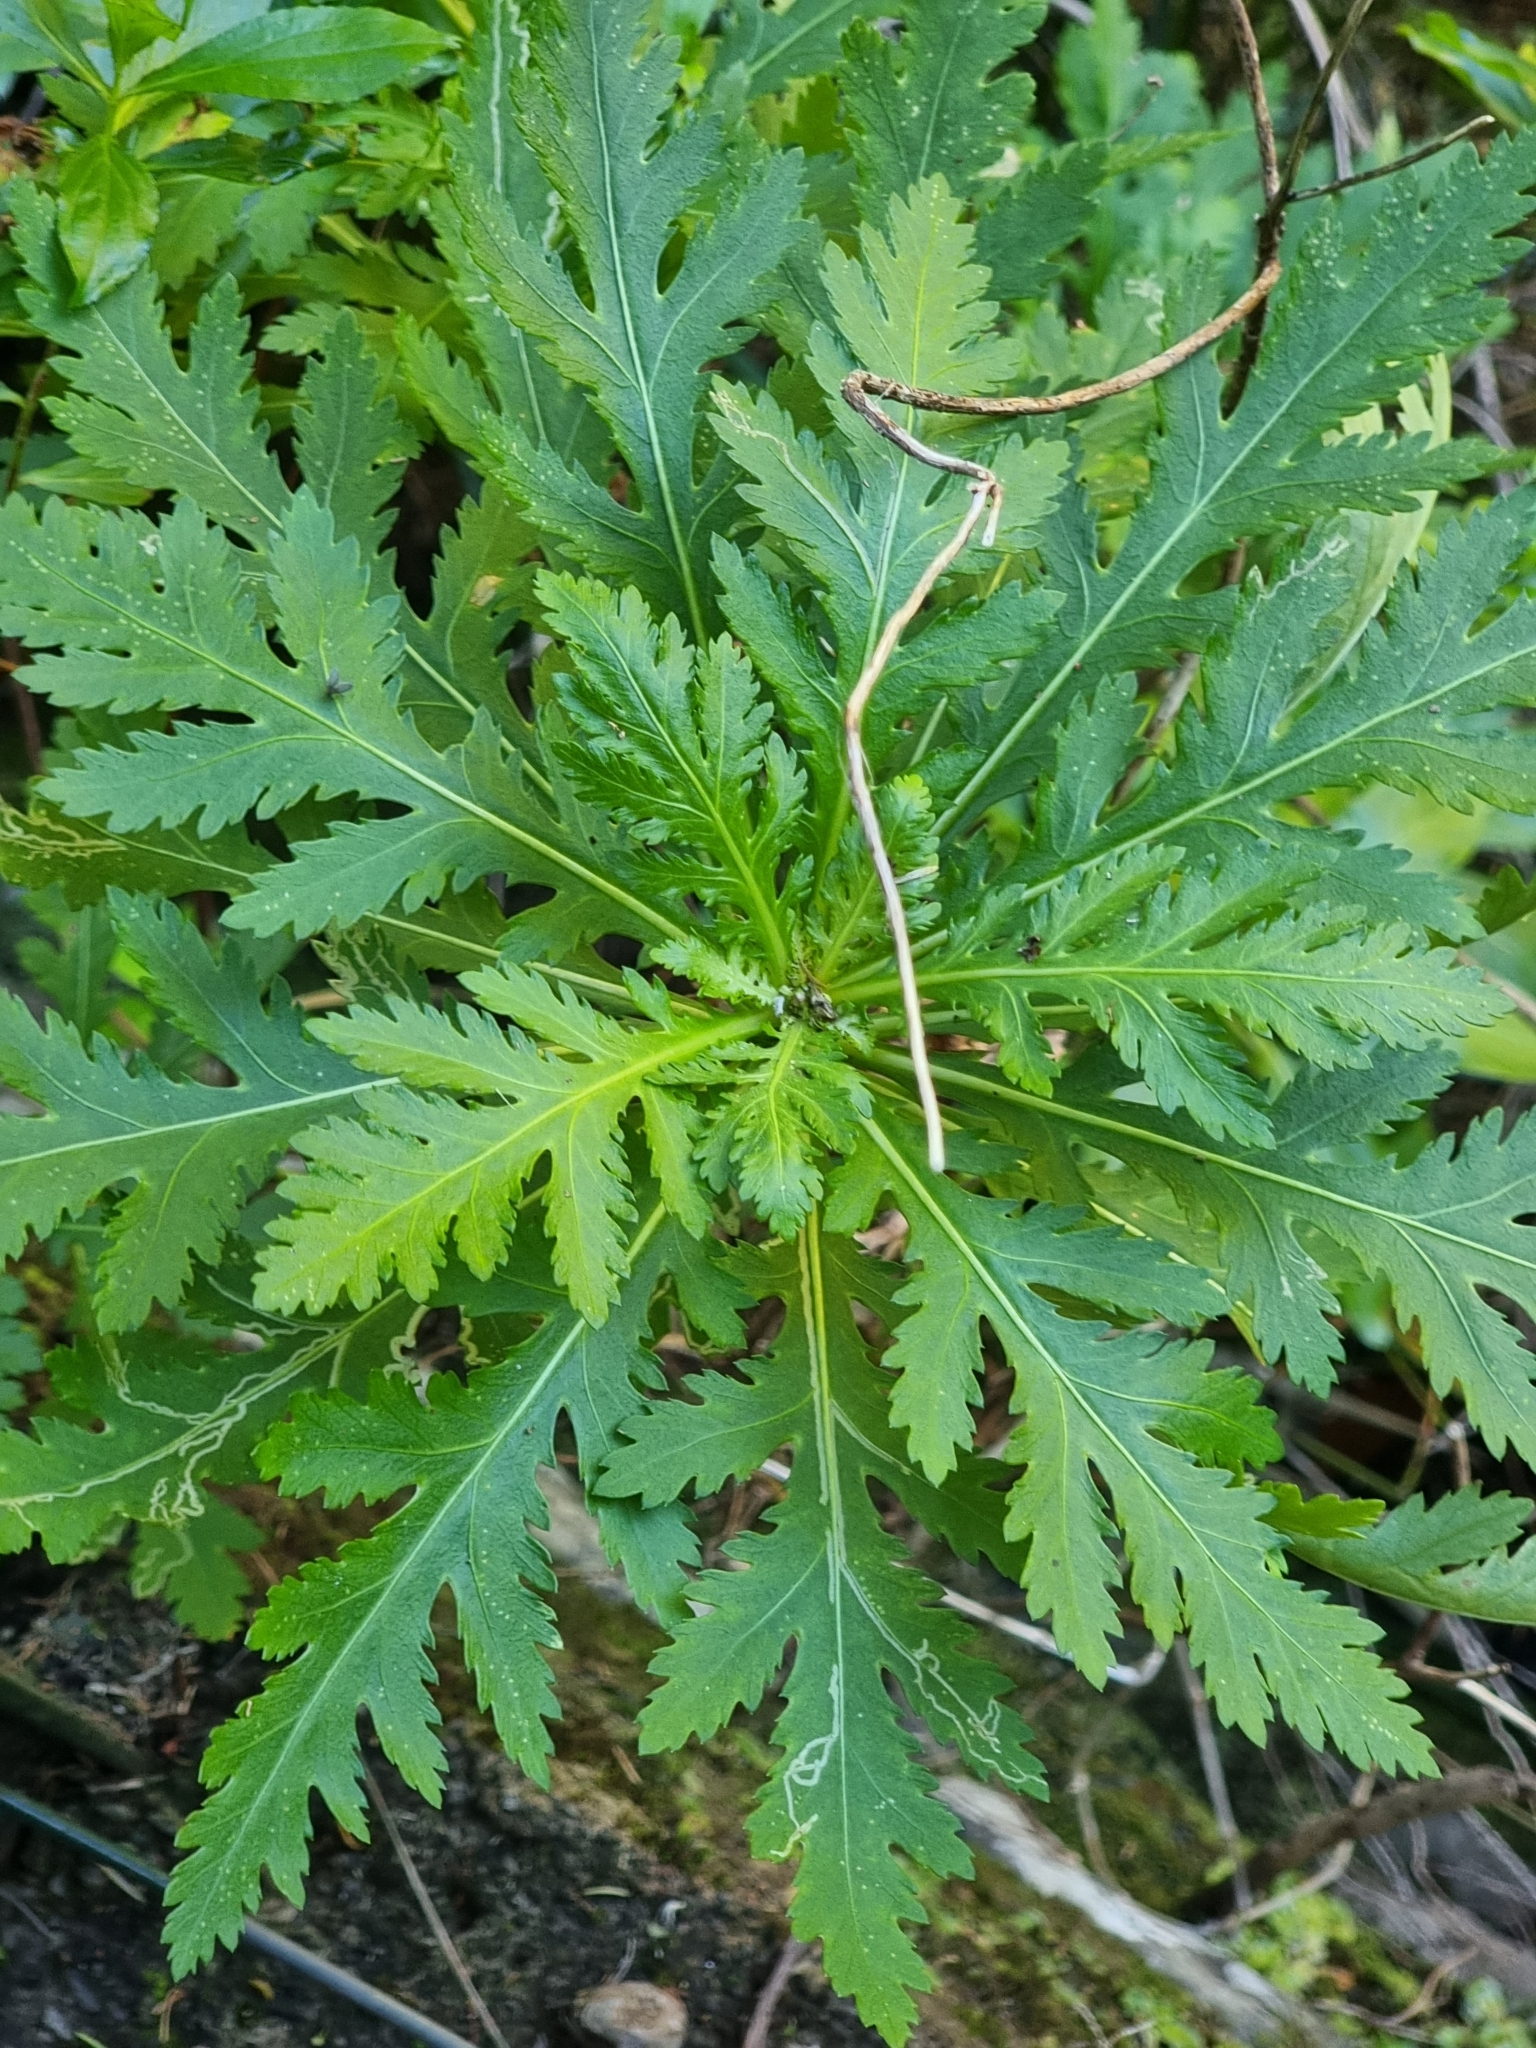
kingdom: Plantae
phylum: Tracheophyta
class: Magnoliopsida
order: Asterales
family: Asteraceae
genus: Argyranthemum
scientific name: Argyranthemum pinnatifidum
